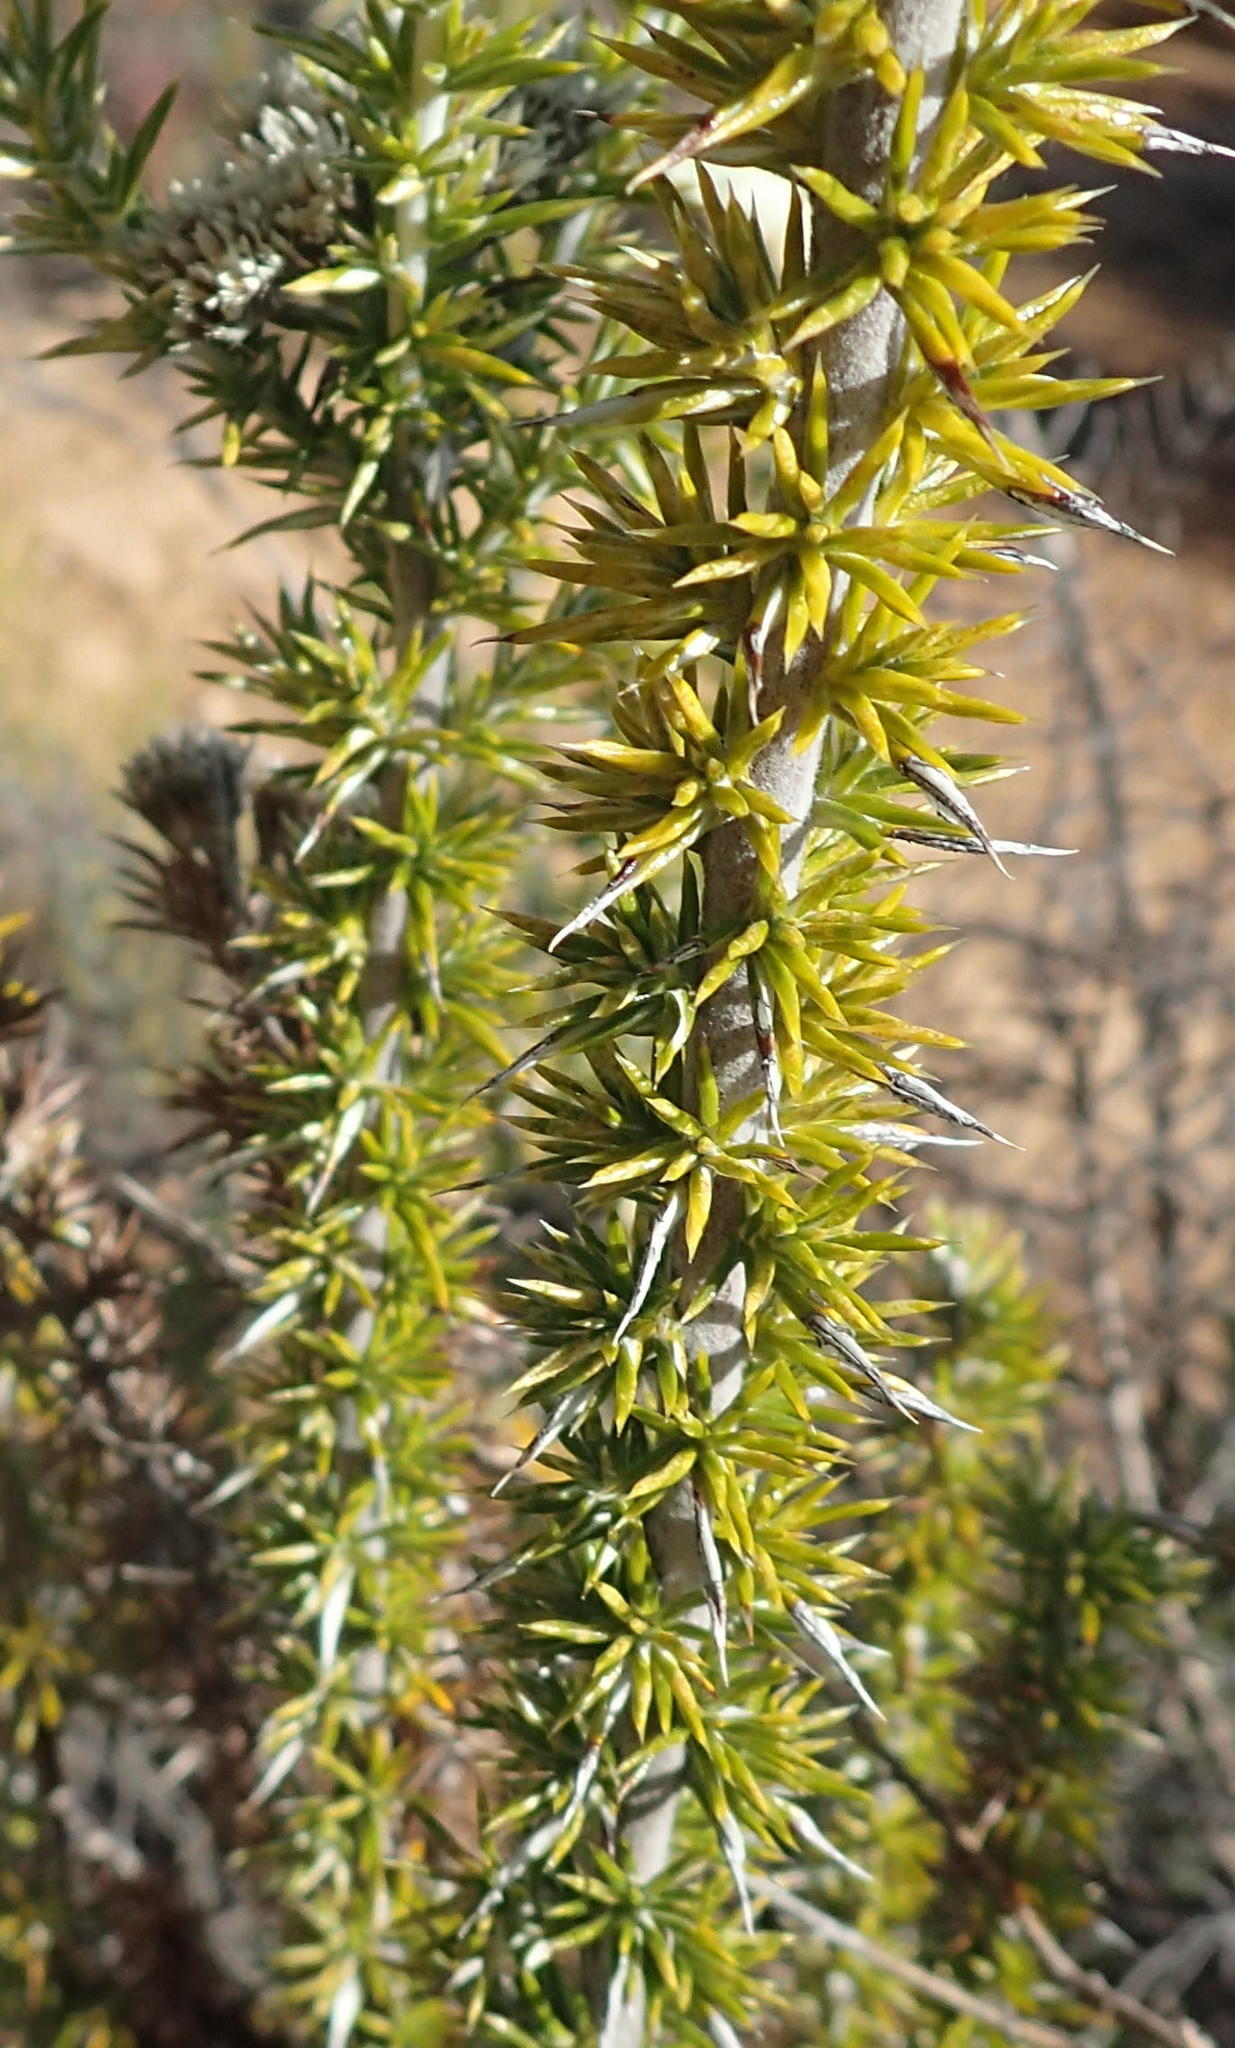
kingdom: Plantae
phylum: Tracheophyta
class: Magnoliopsida
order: Asterales
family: Asteraceae
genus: Metalasia
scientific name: Metalasia trivialis
